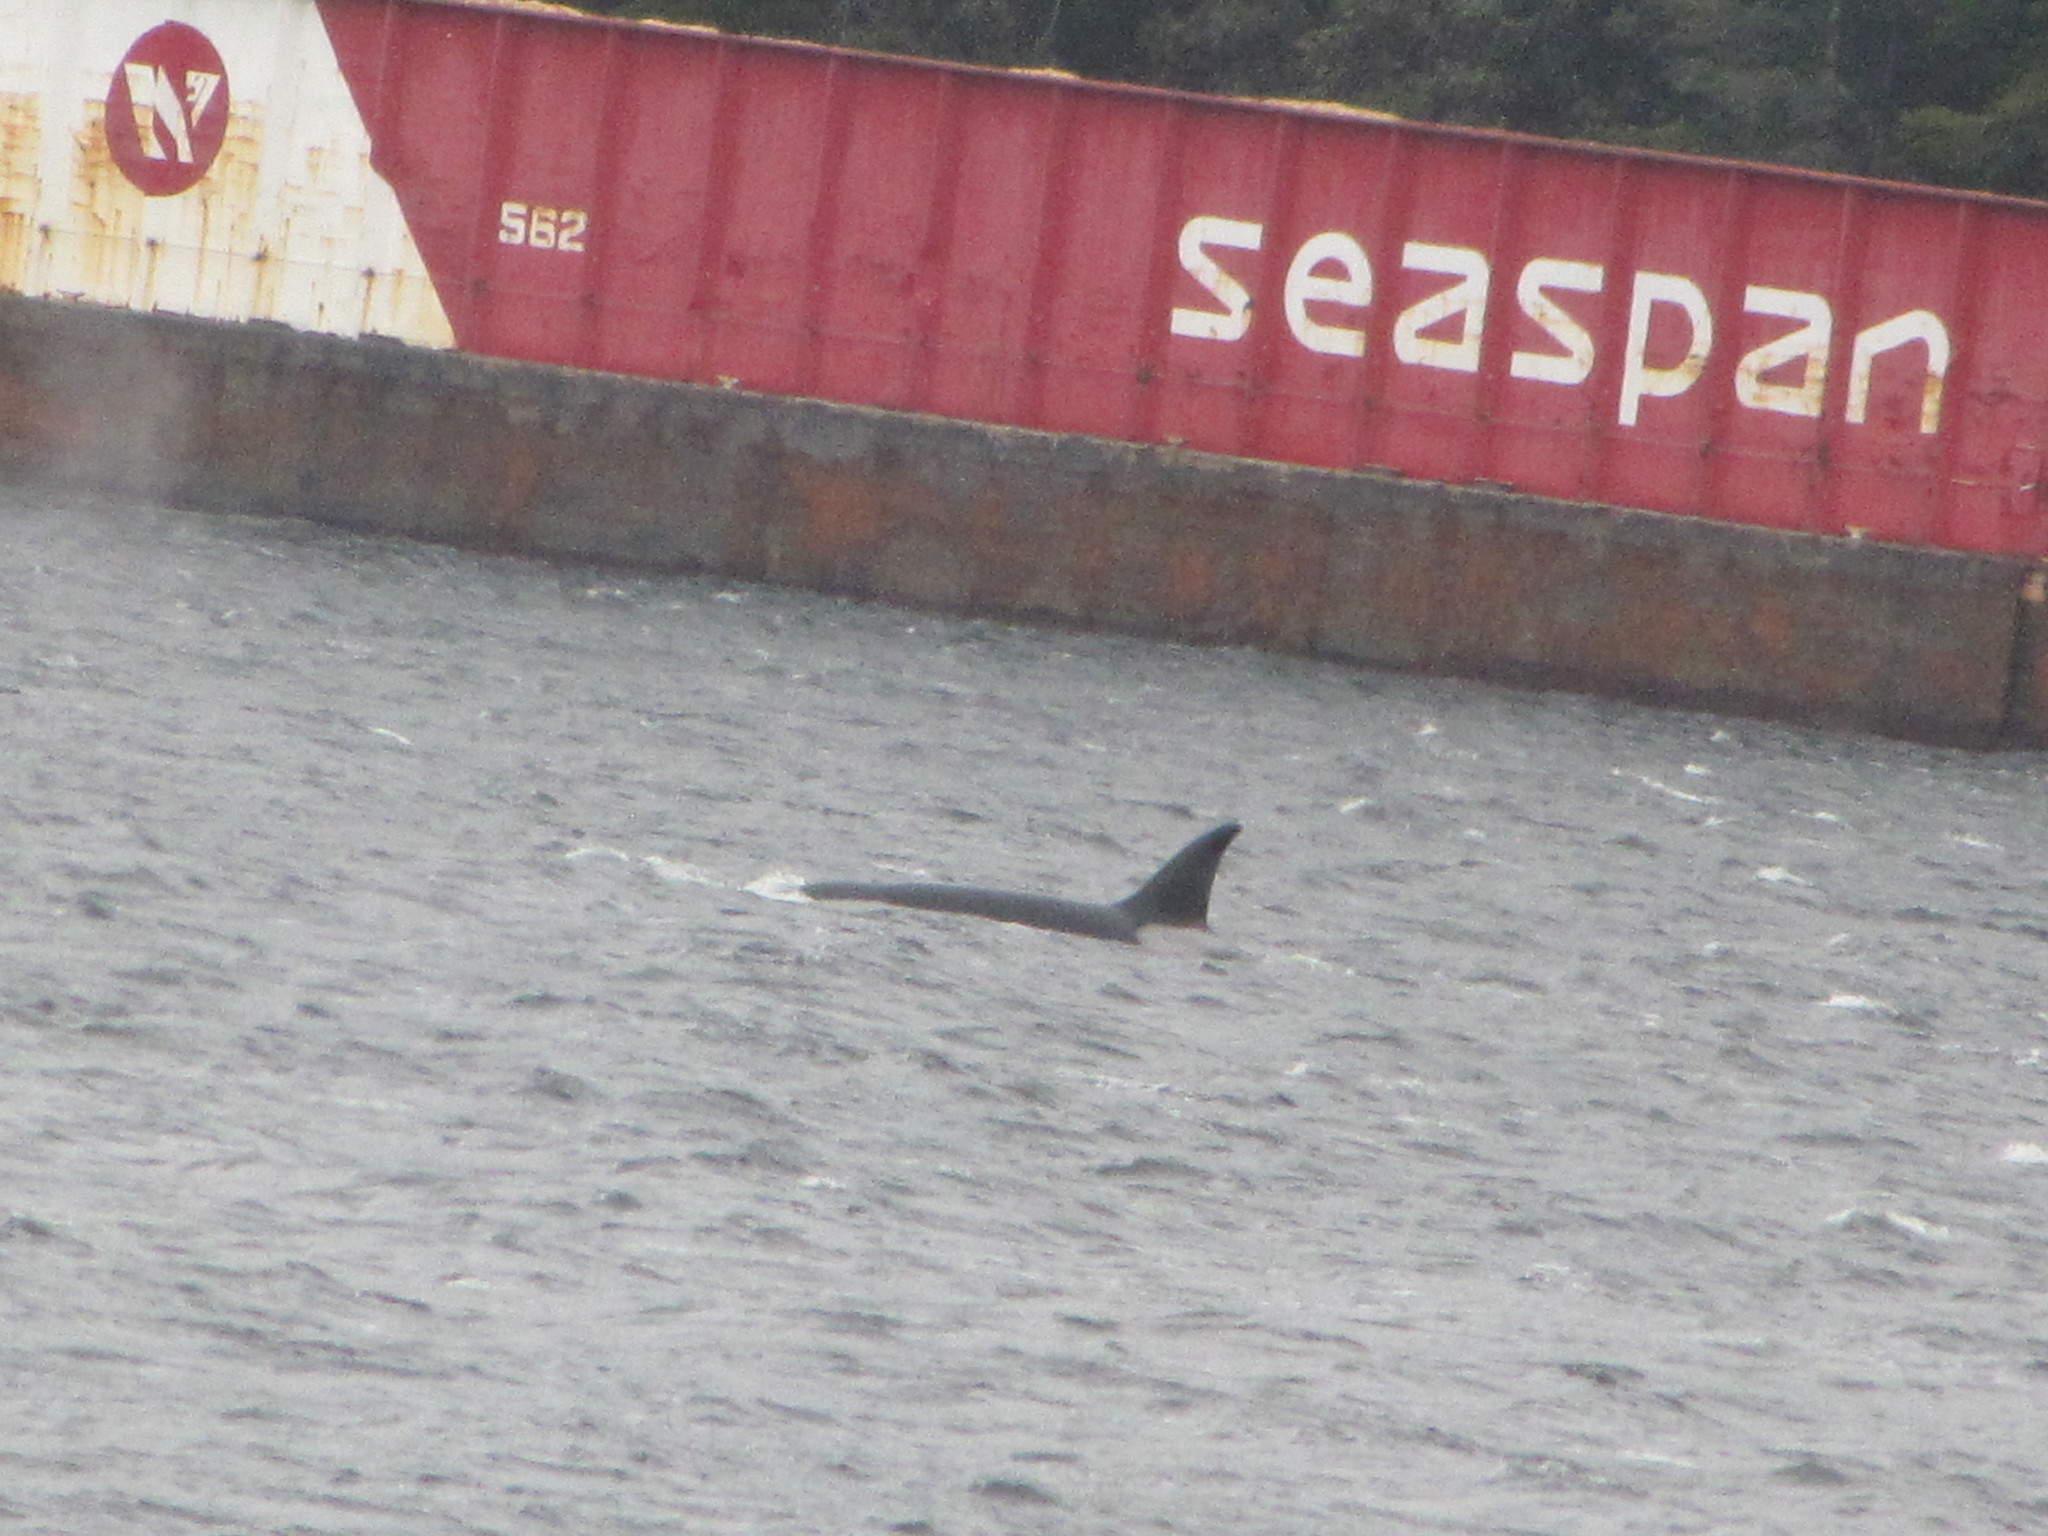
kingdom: Animalia
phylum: Chordata
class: Mammalia
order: Cetacea
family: Delphinidae
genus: Orcinus
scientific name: Orcinus orca
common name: Killer whale
